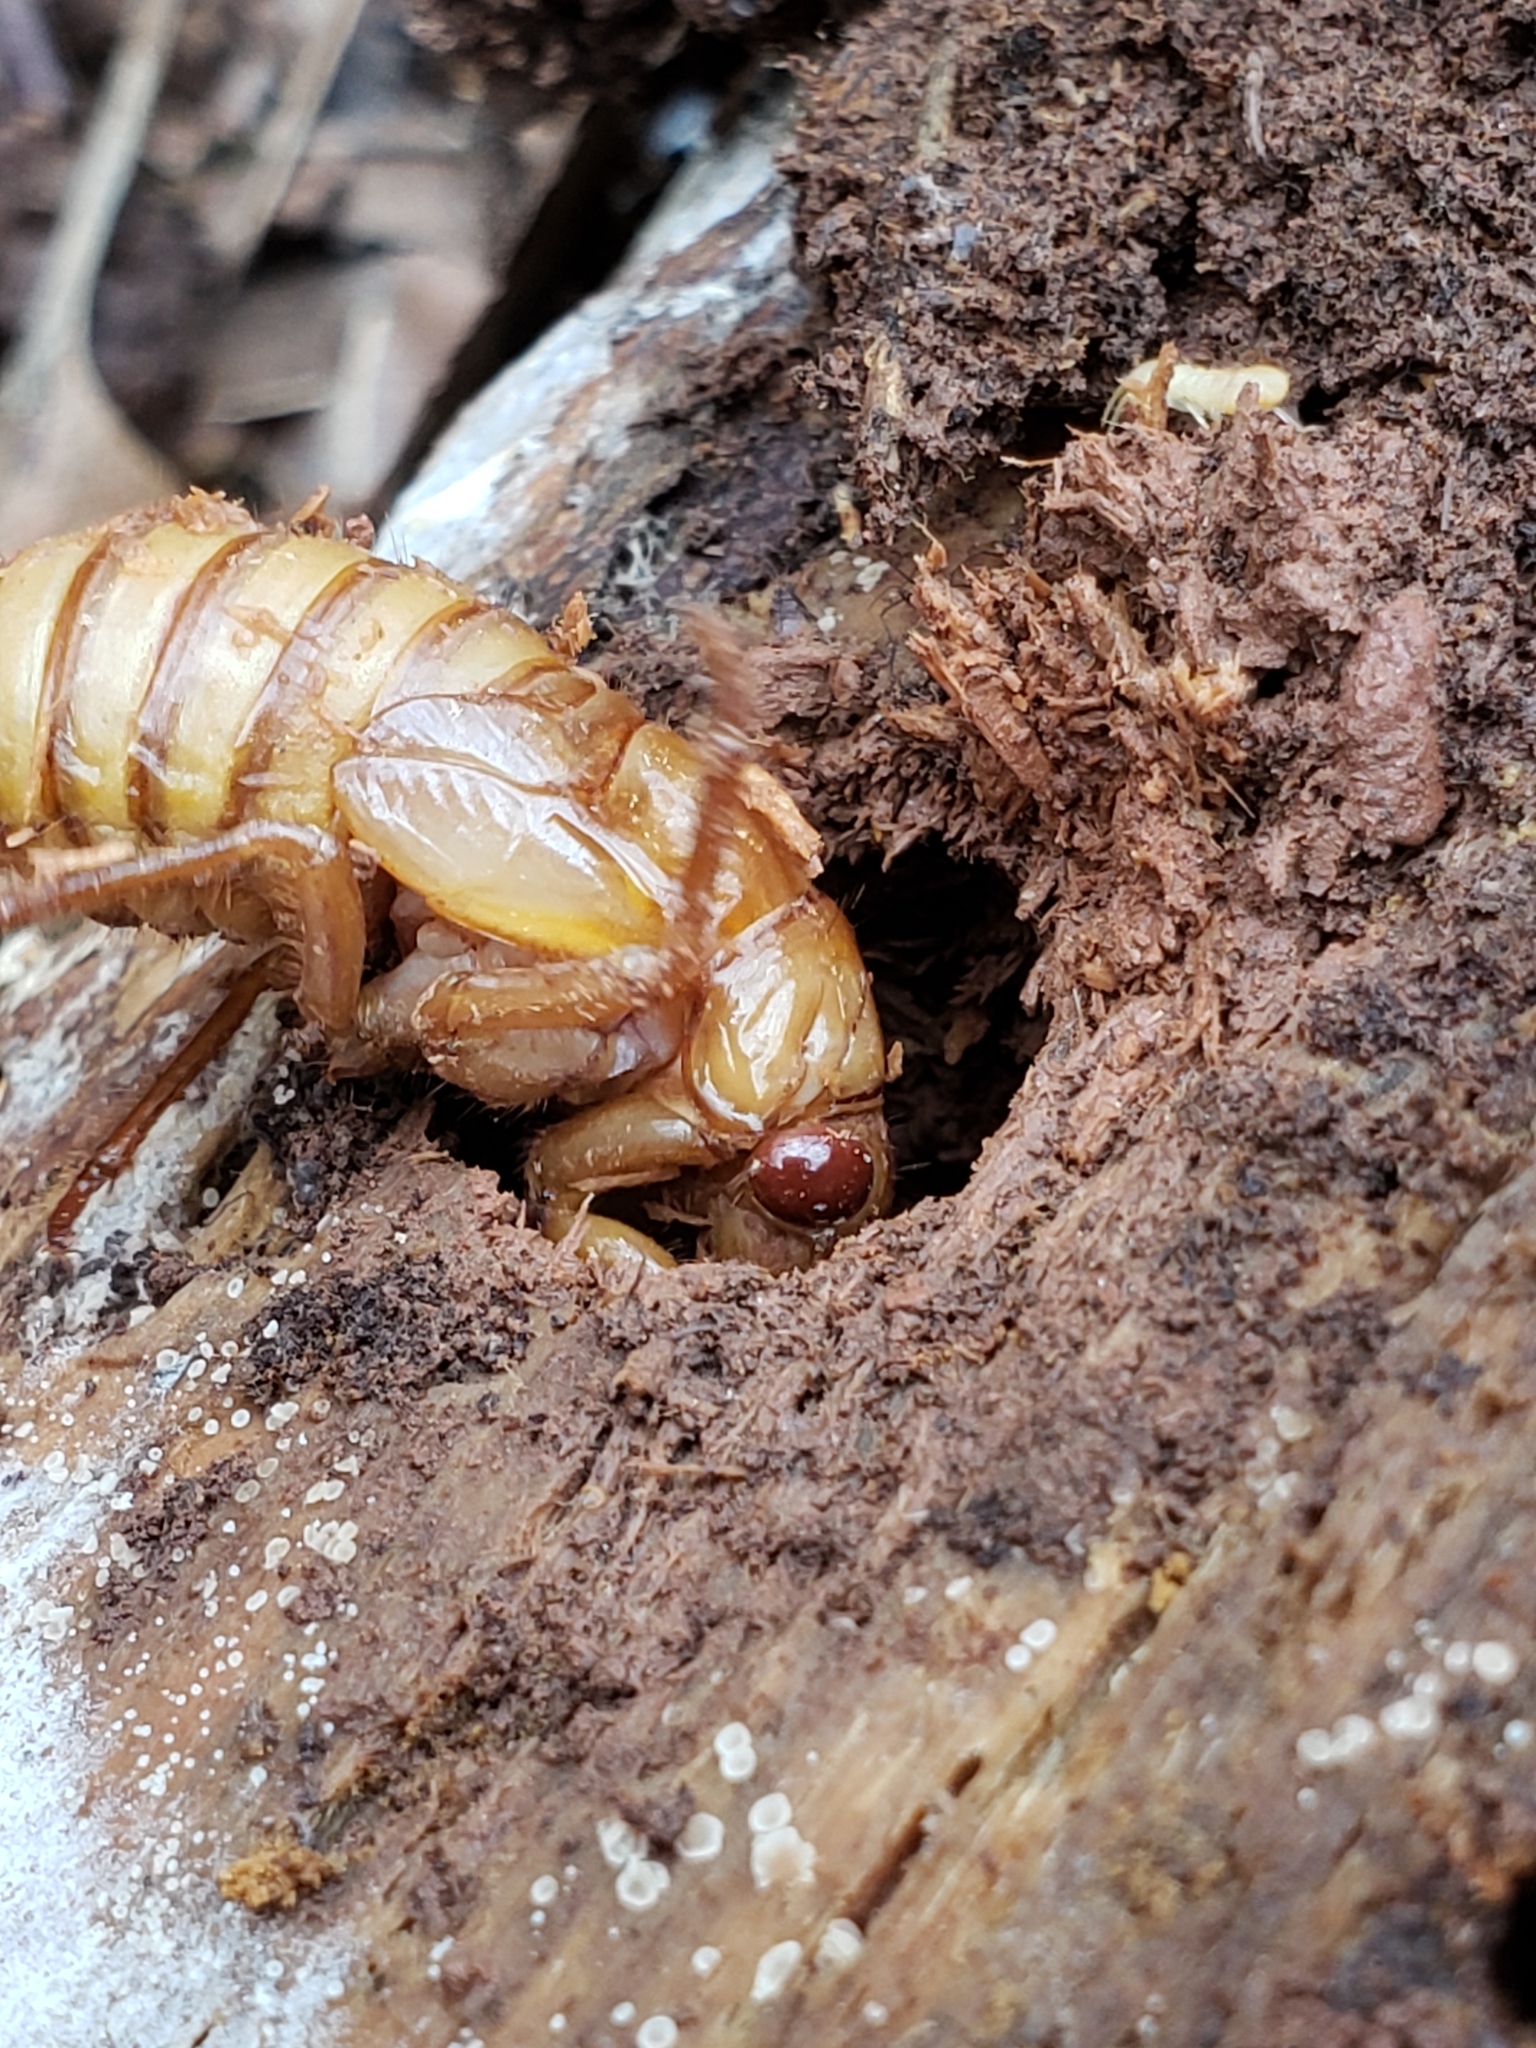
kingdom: Animalia
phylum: Arthropoda
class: Insecta
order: Hemiptera
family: Cicadidae
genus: Magicicada
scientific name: Magicicada
